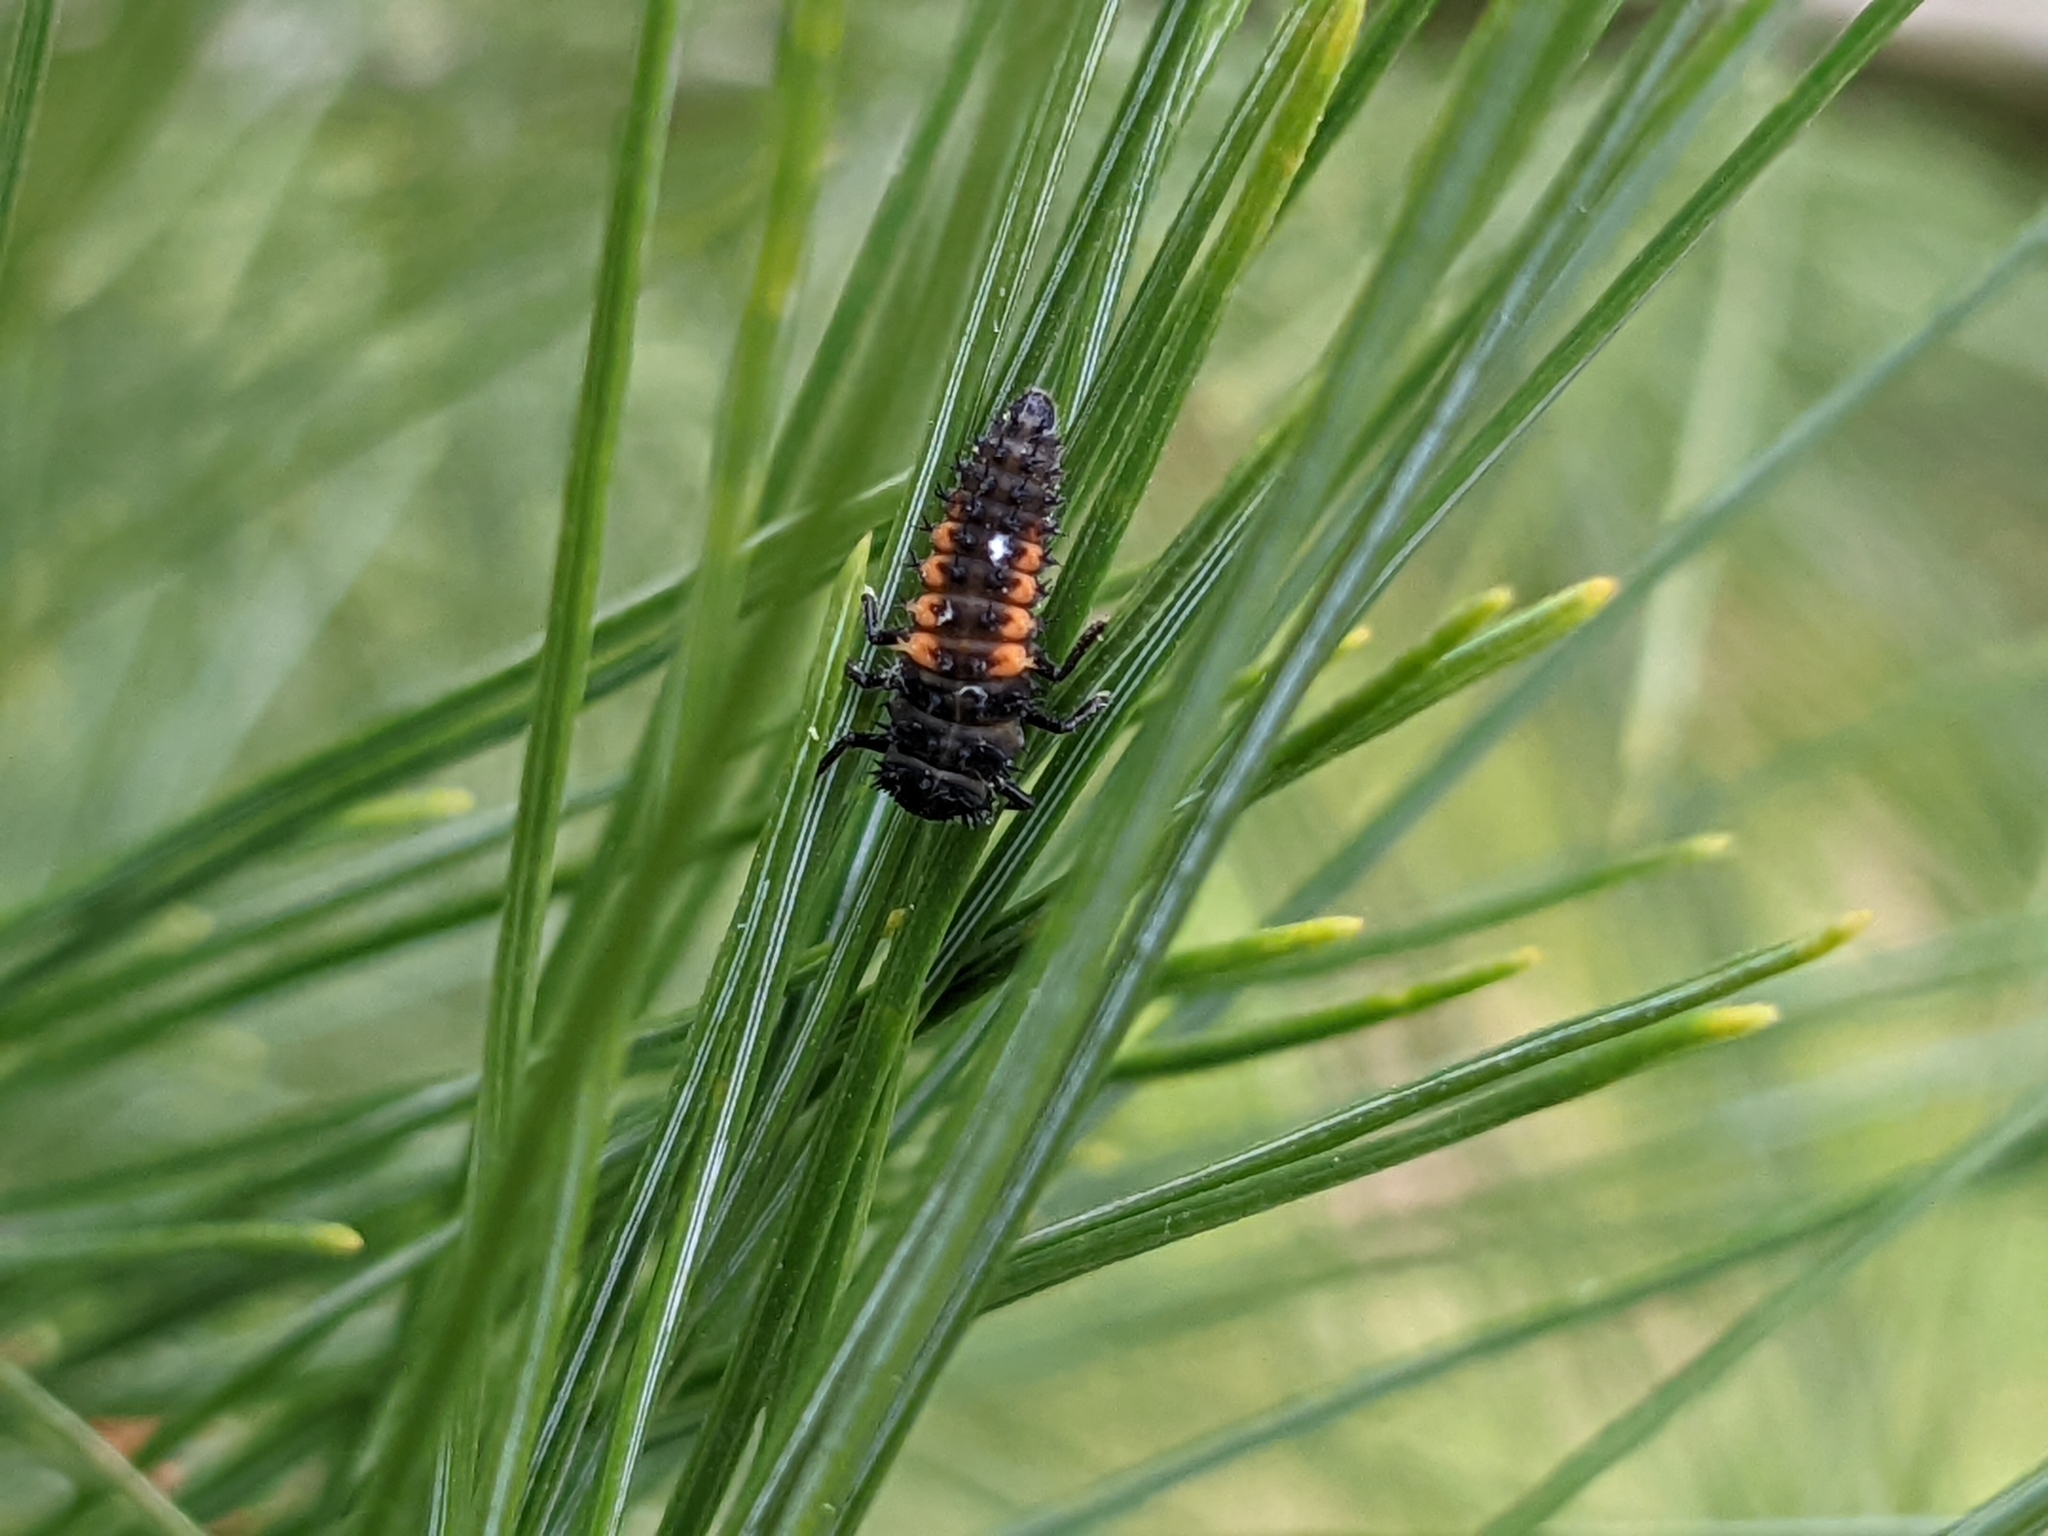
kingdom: Animalia
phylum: Arthropoda
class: Insecta
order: Coleoptera
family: Coccinellidae
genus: Harmonia
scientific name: Harmonia axyridis
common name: Harlequin ladybird
